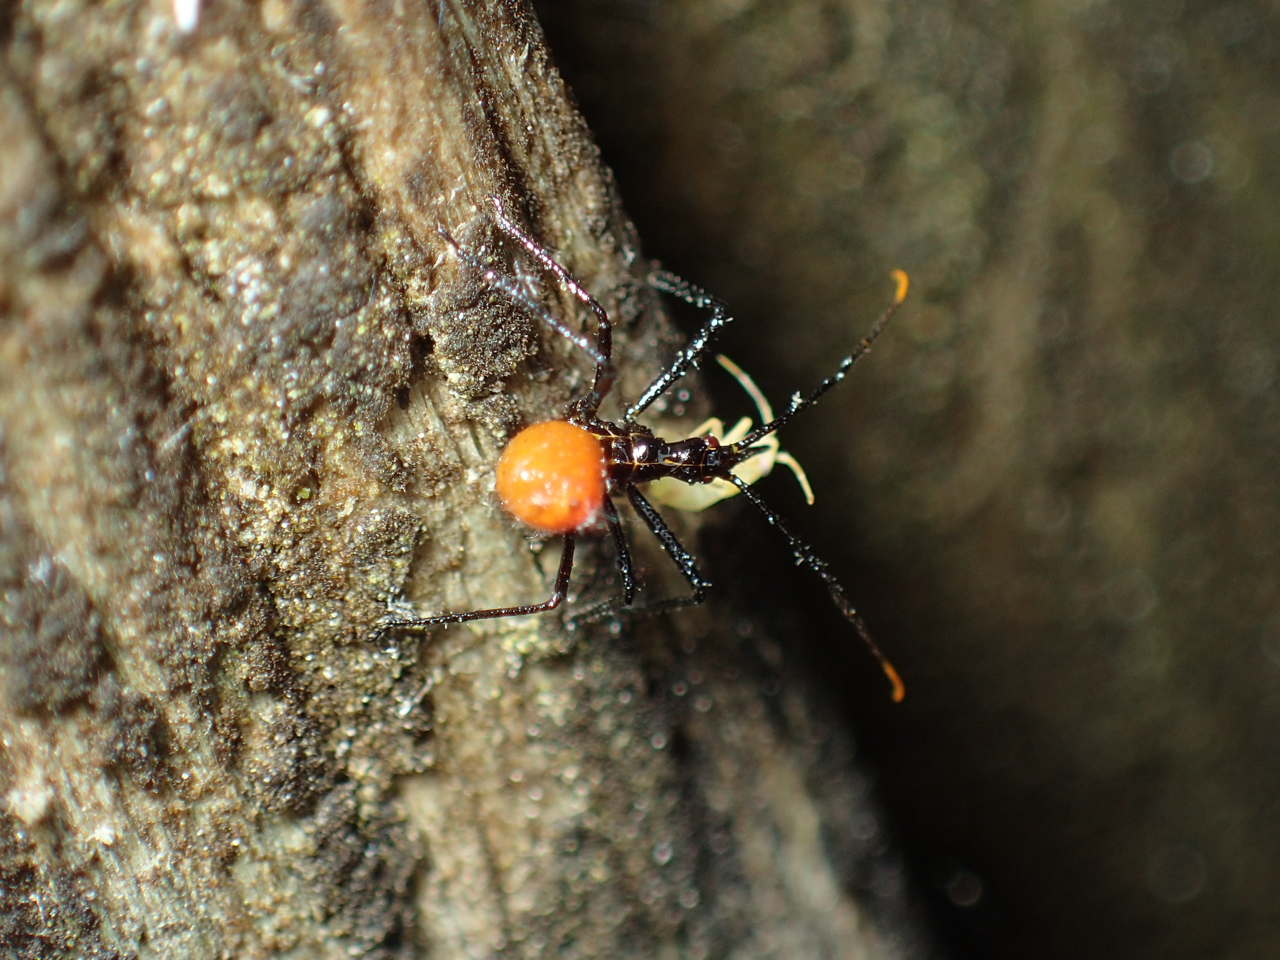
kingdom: Animalia
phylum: Arthropoda
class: Insecta
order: Hemiptera
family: Reduviidae
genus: Arilus
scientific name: Arilus cristatus
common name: North american wheel bug
